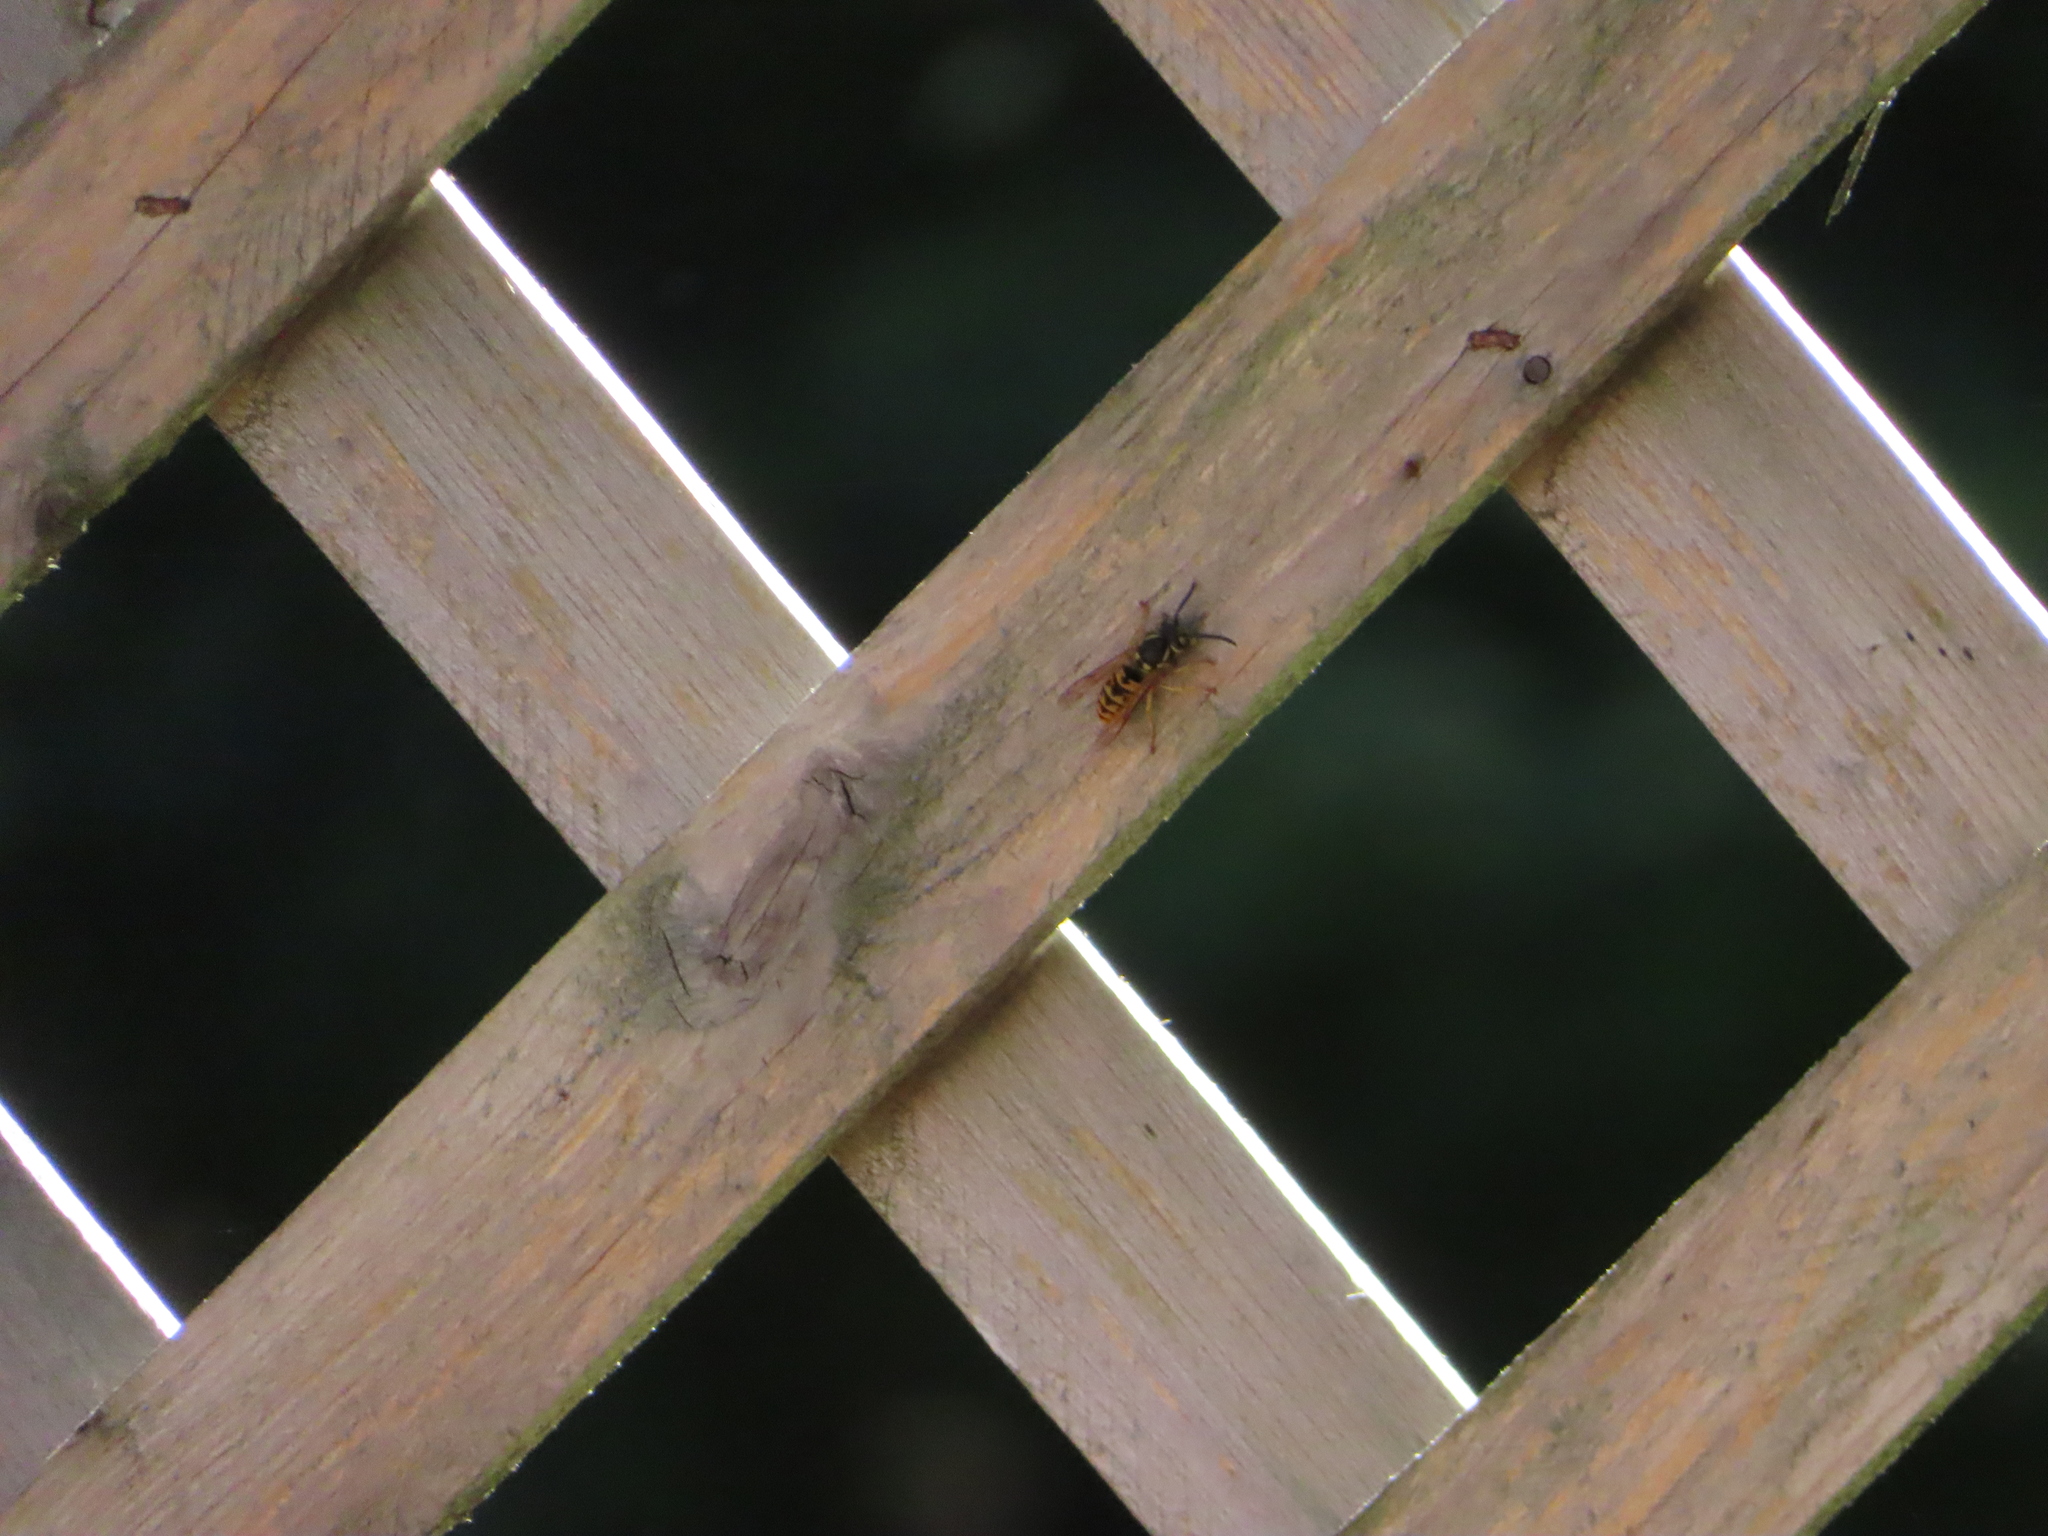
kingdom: Animalia
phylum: Arthropoda
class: Insecta
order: Hymenoptera
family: Vespidae
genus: Vespula
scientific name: Vespula germanica
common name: German wasp
